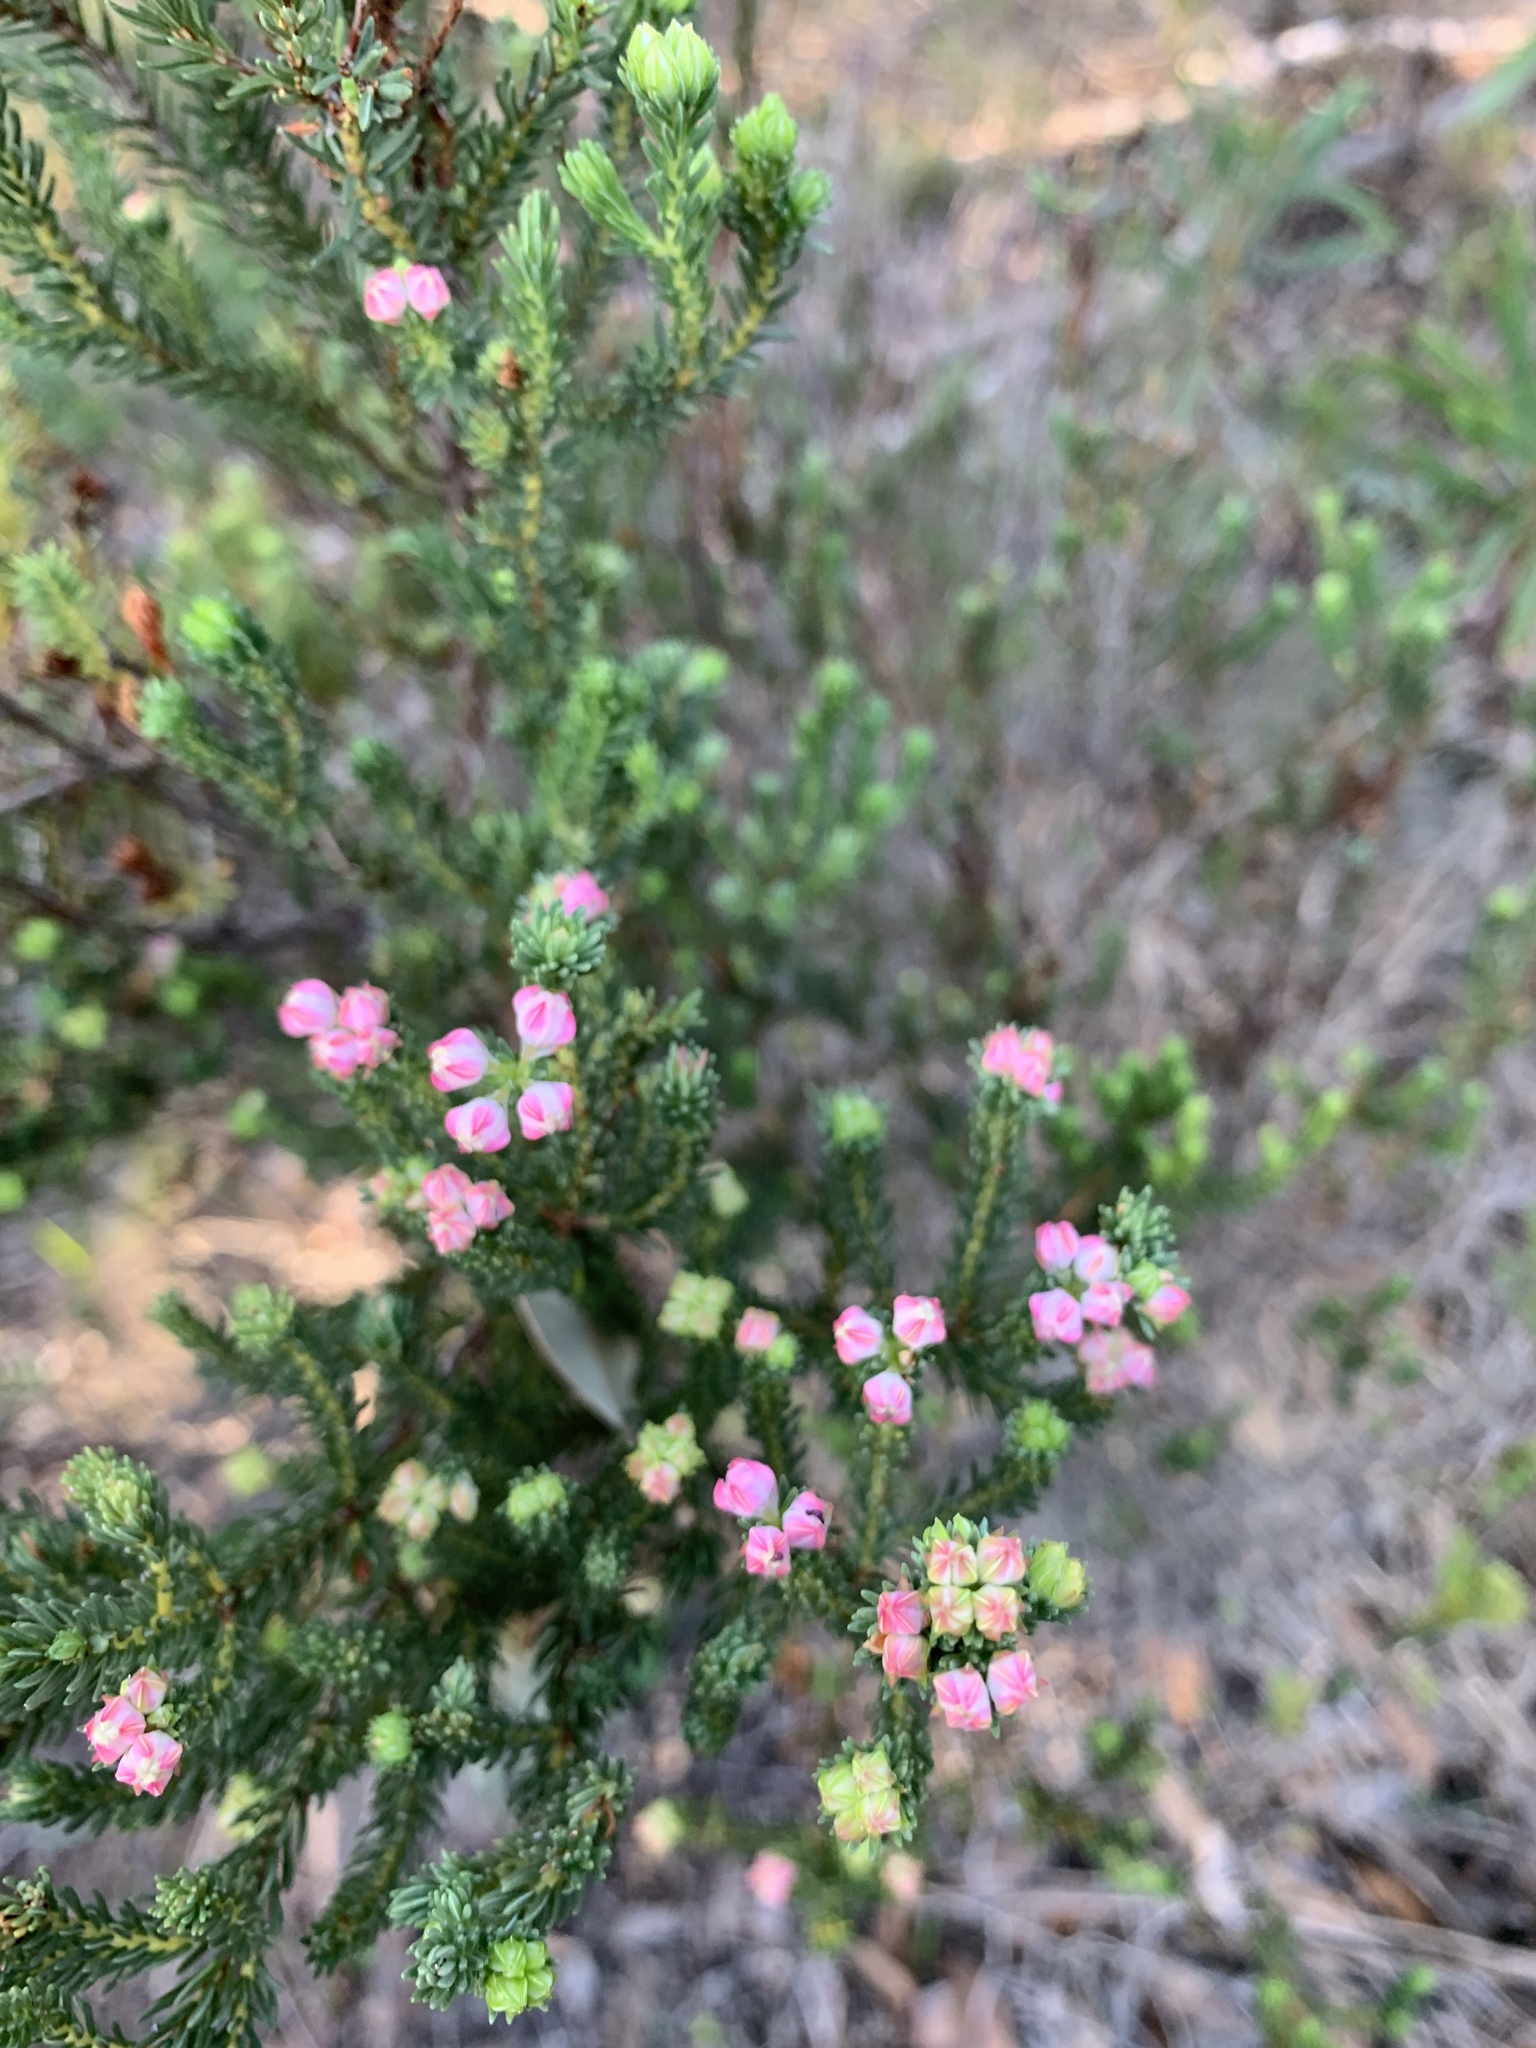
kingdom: Plantae
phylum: Tracheophyta
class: Magnoliopsida
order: Ericales
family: Ericaceae
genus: Erica
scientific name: Erica baccans
